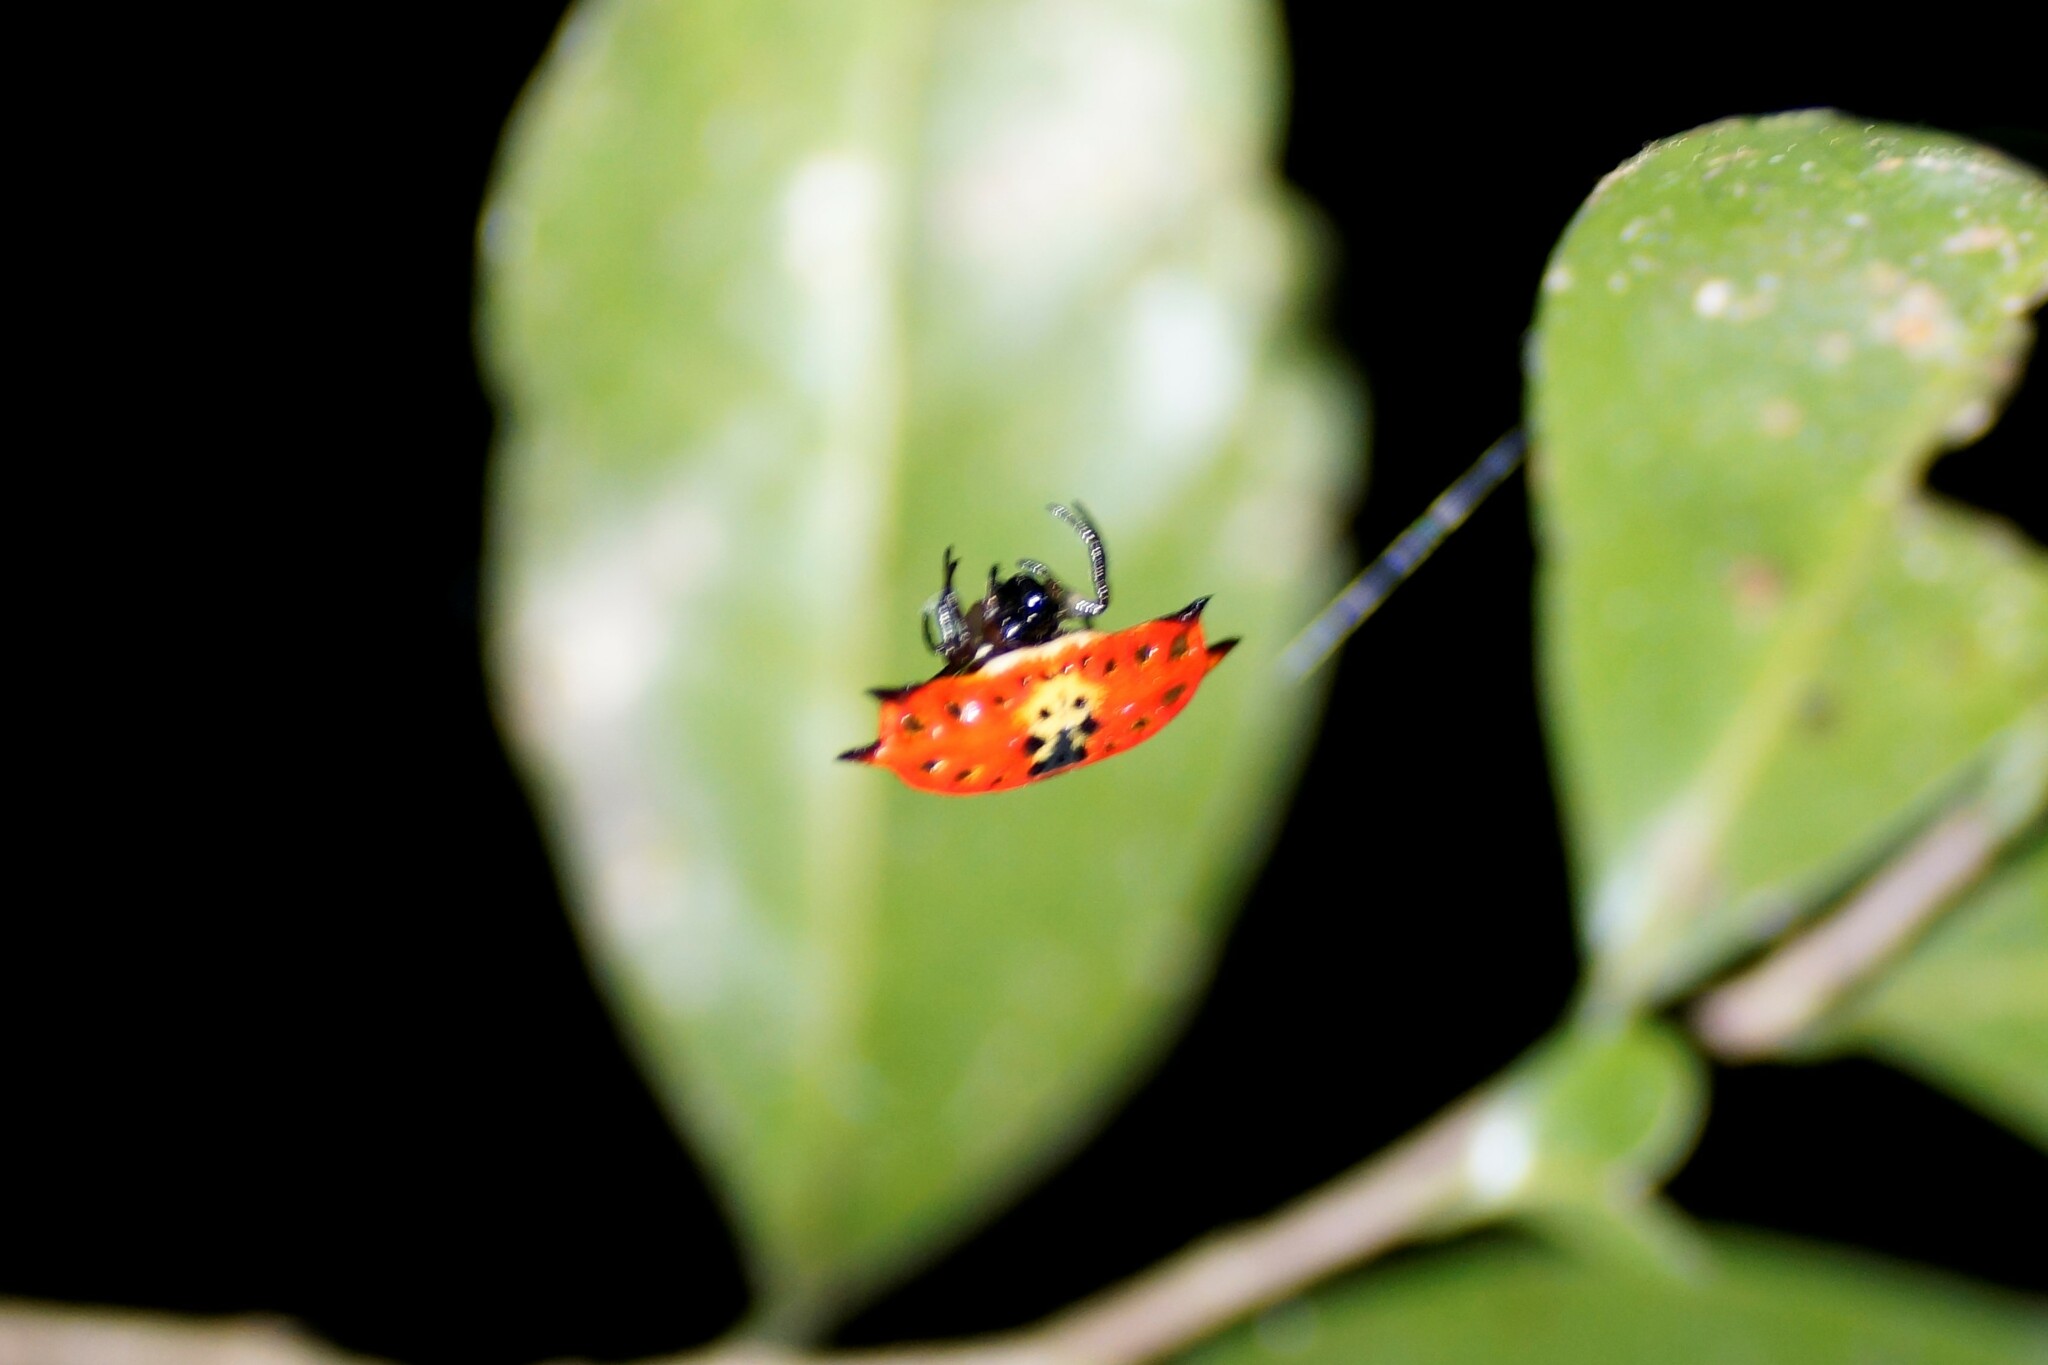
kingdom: Animalia
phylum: Arthropoda
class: Arachnida
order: Araneae
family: Araneidae
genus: Gasteracantha
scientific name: Gasteracantha quadrispinosa
